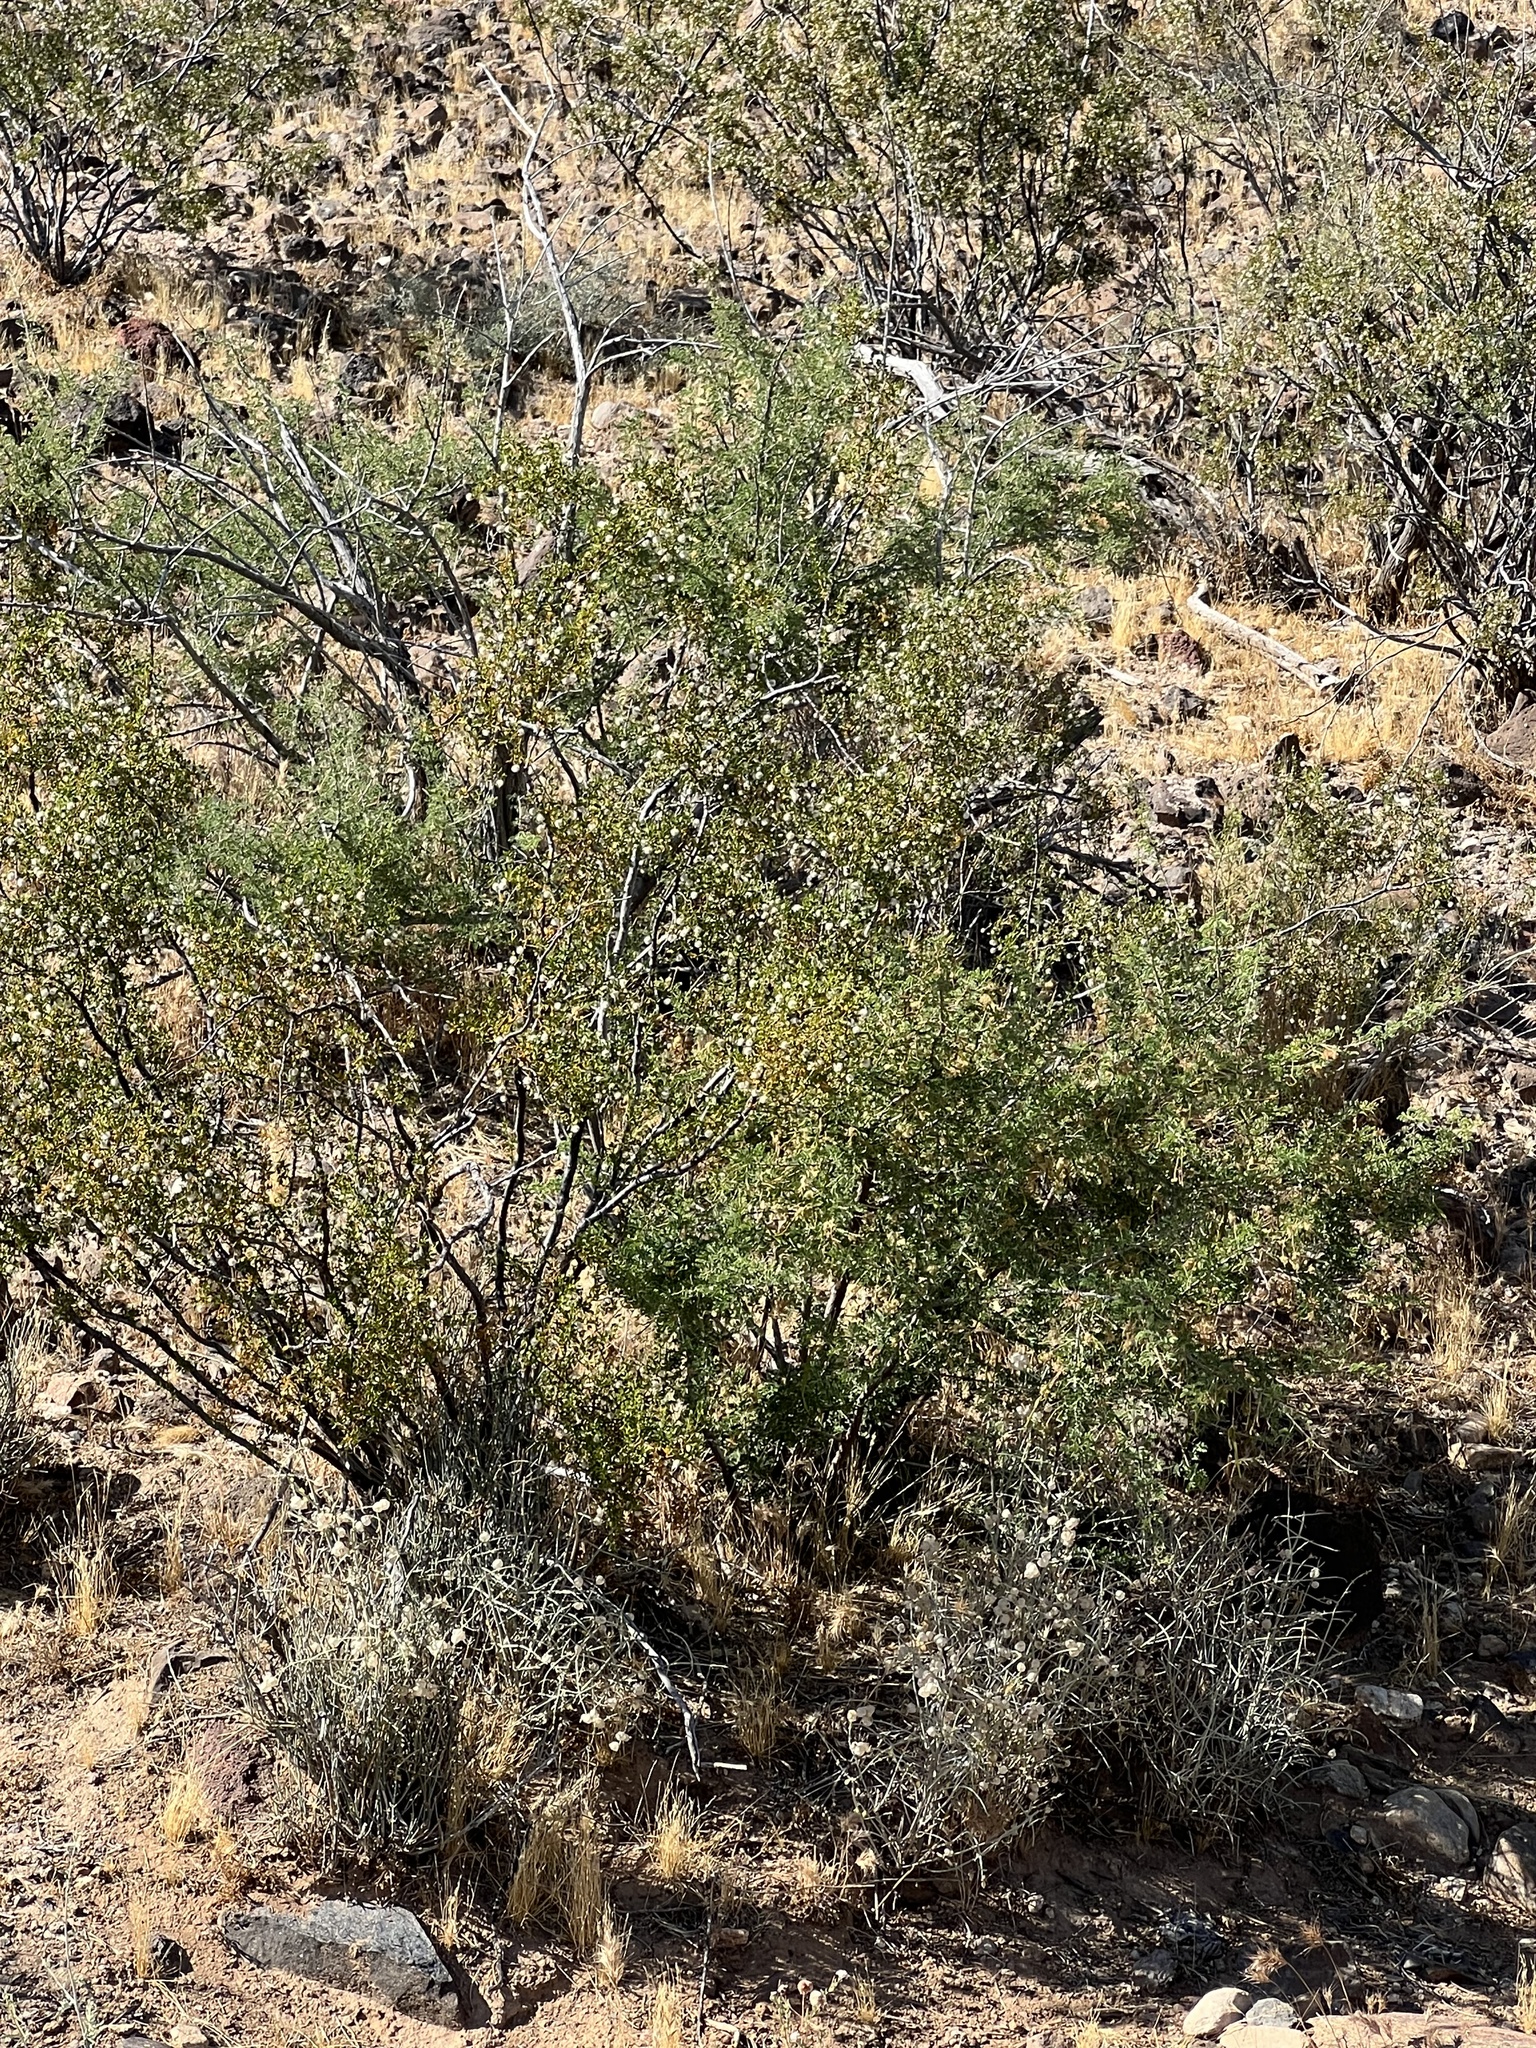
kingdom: Plantae
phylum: Tracheophyta
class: Magnoliopsida
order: Zygophyllales
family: Zygophyllaceae
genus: Larrea
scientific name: Larrea tridentata
